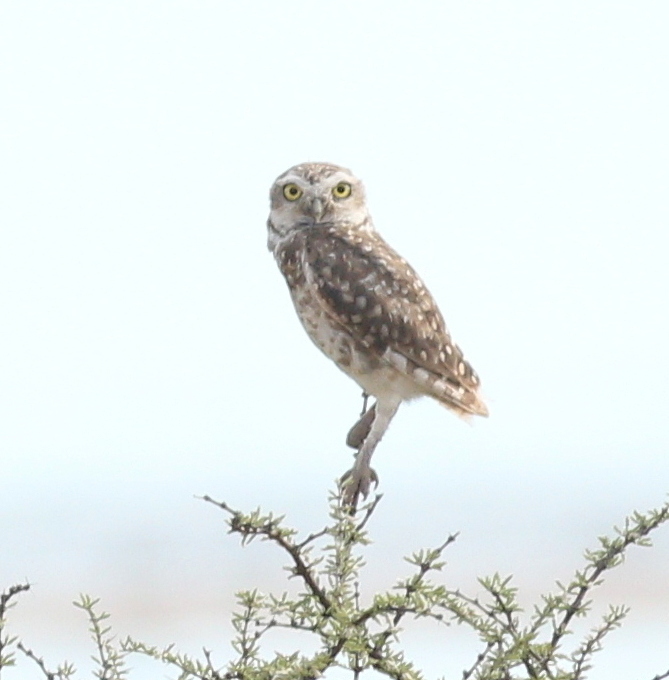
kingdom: Animalia
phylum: Chordata
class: Aves
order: Strigiformes
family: Strigidae
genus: Athene
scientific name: Athene cunicularia
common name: Burrowing owl
